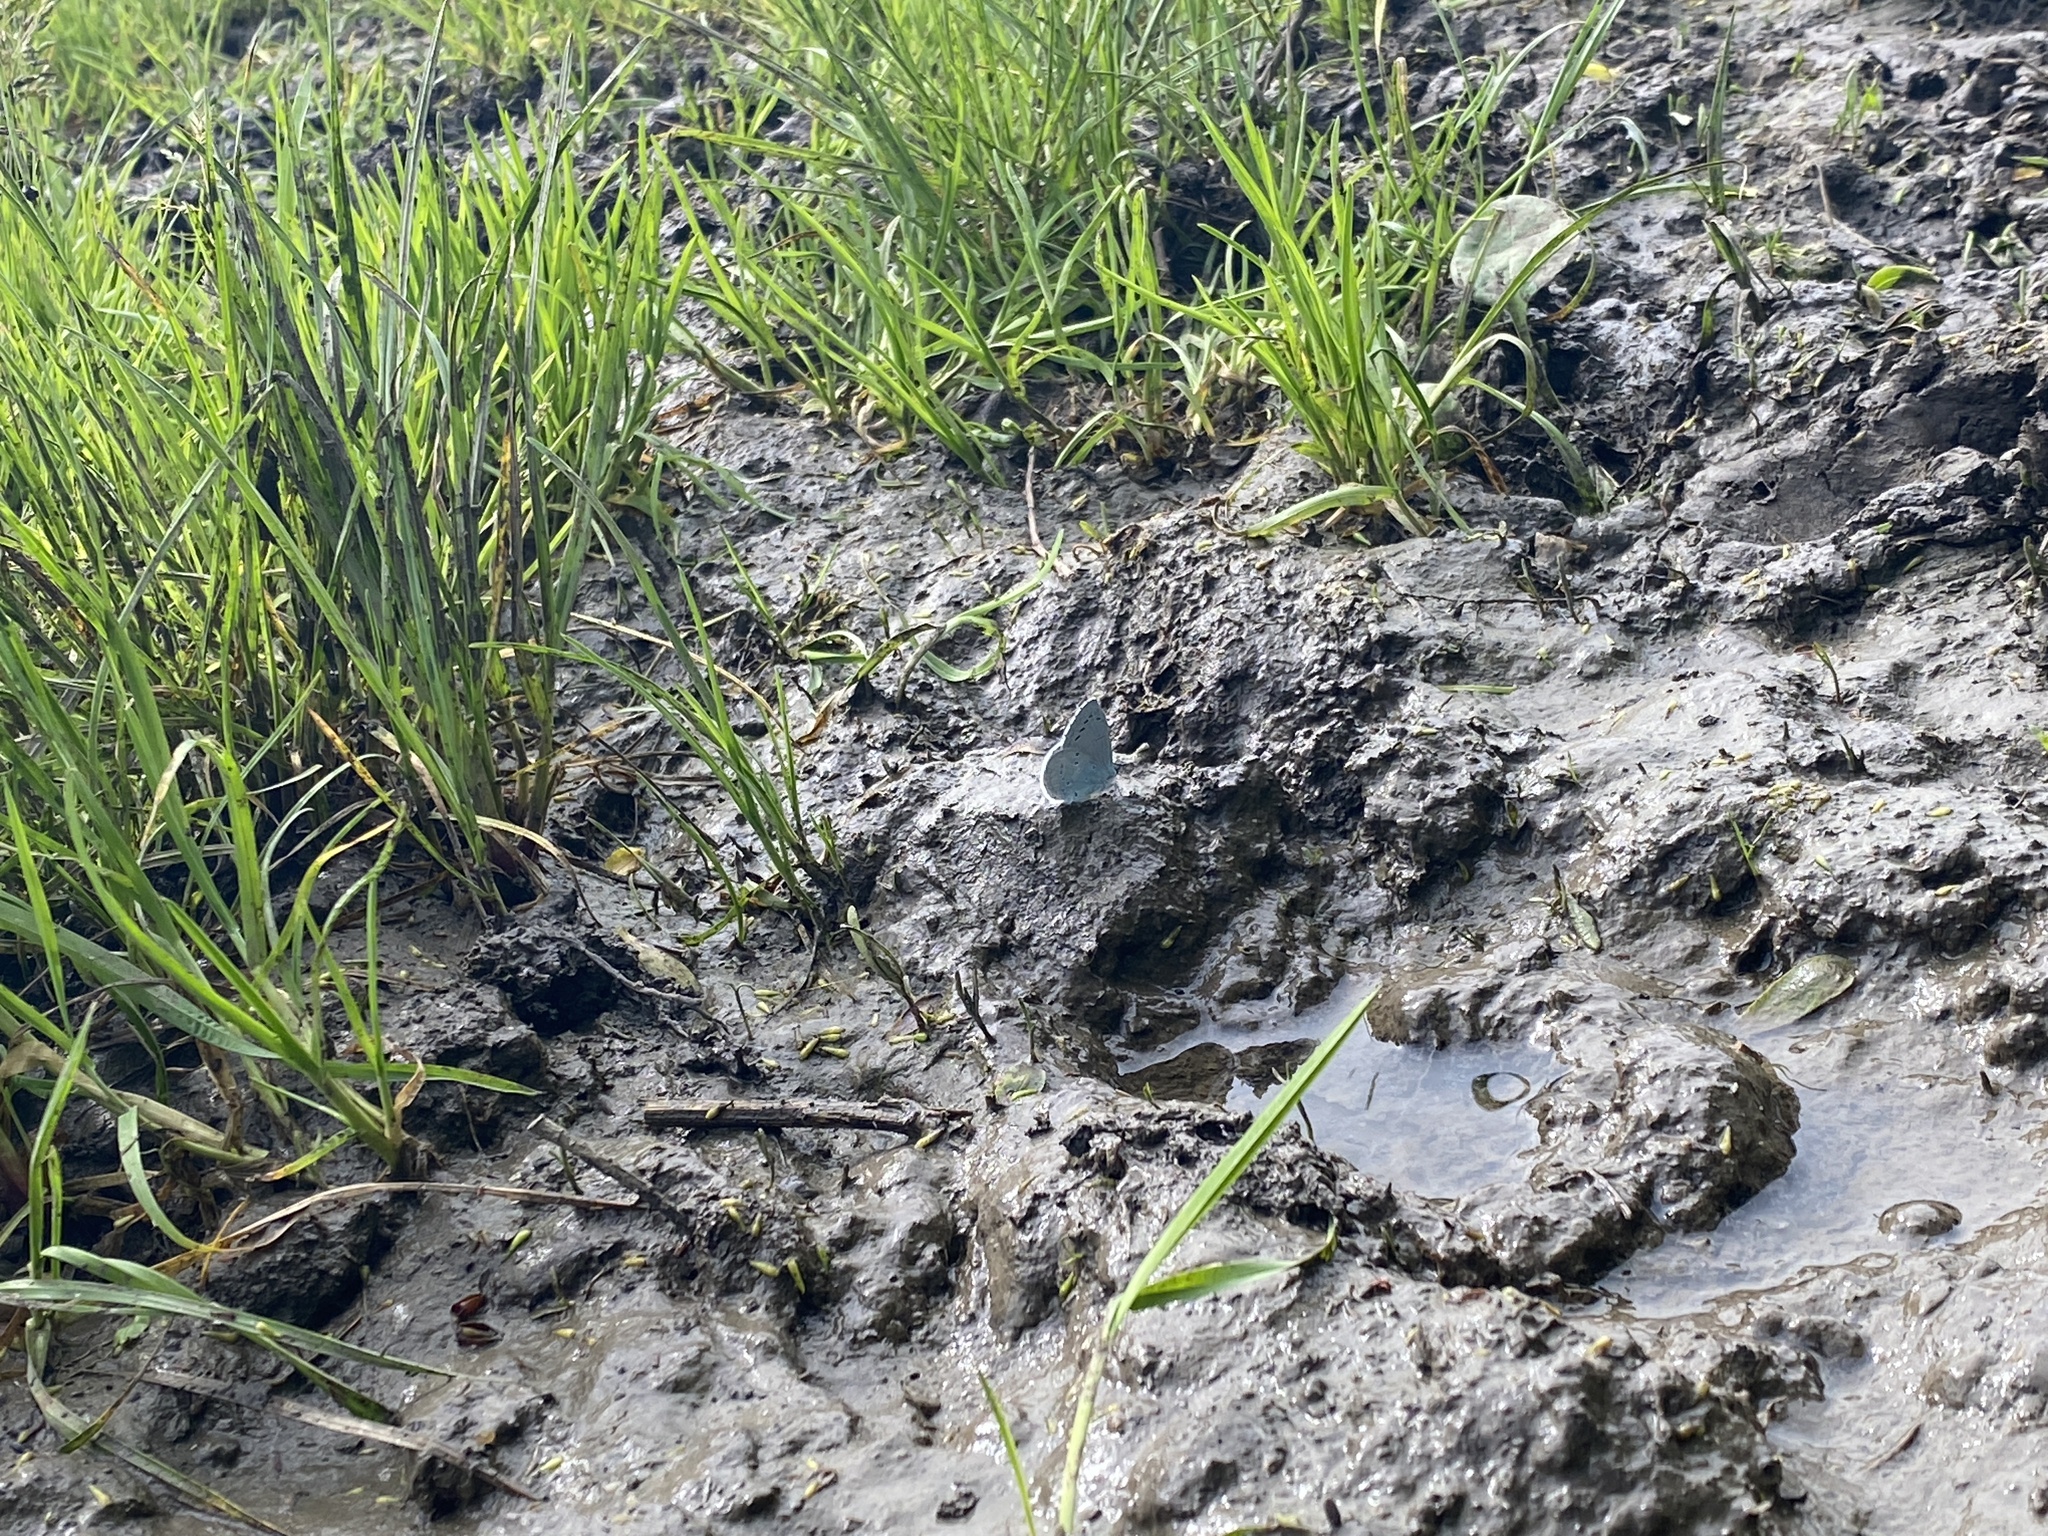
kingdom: Animalia
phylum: Arthropoda
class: Insecta
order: Lepidoptera
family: Lycaenidae
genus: Celastrina
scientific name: Celastrina argiolus
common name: Holly blue
